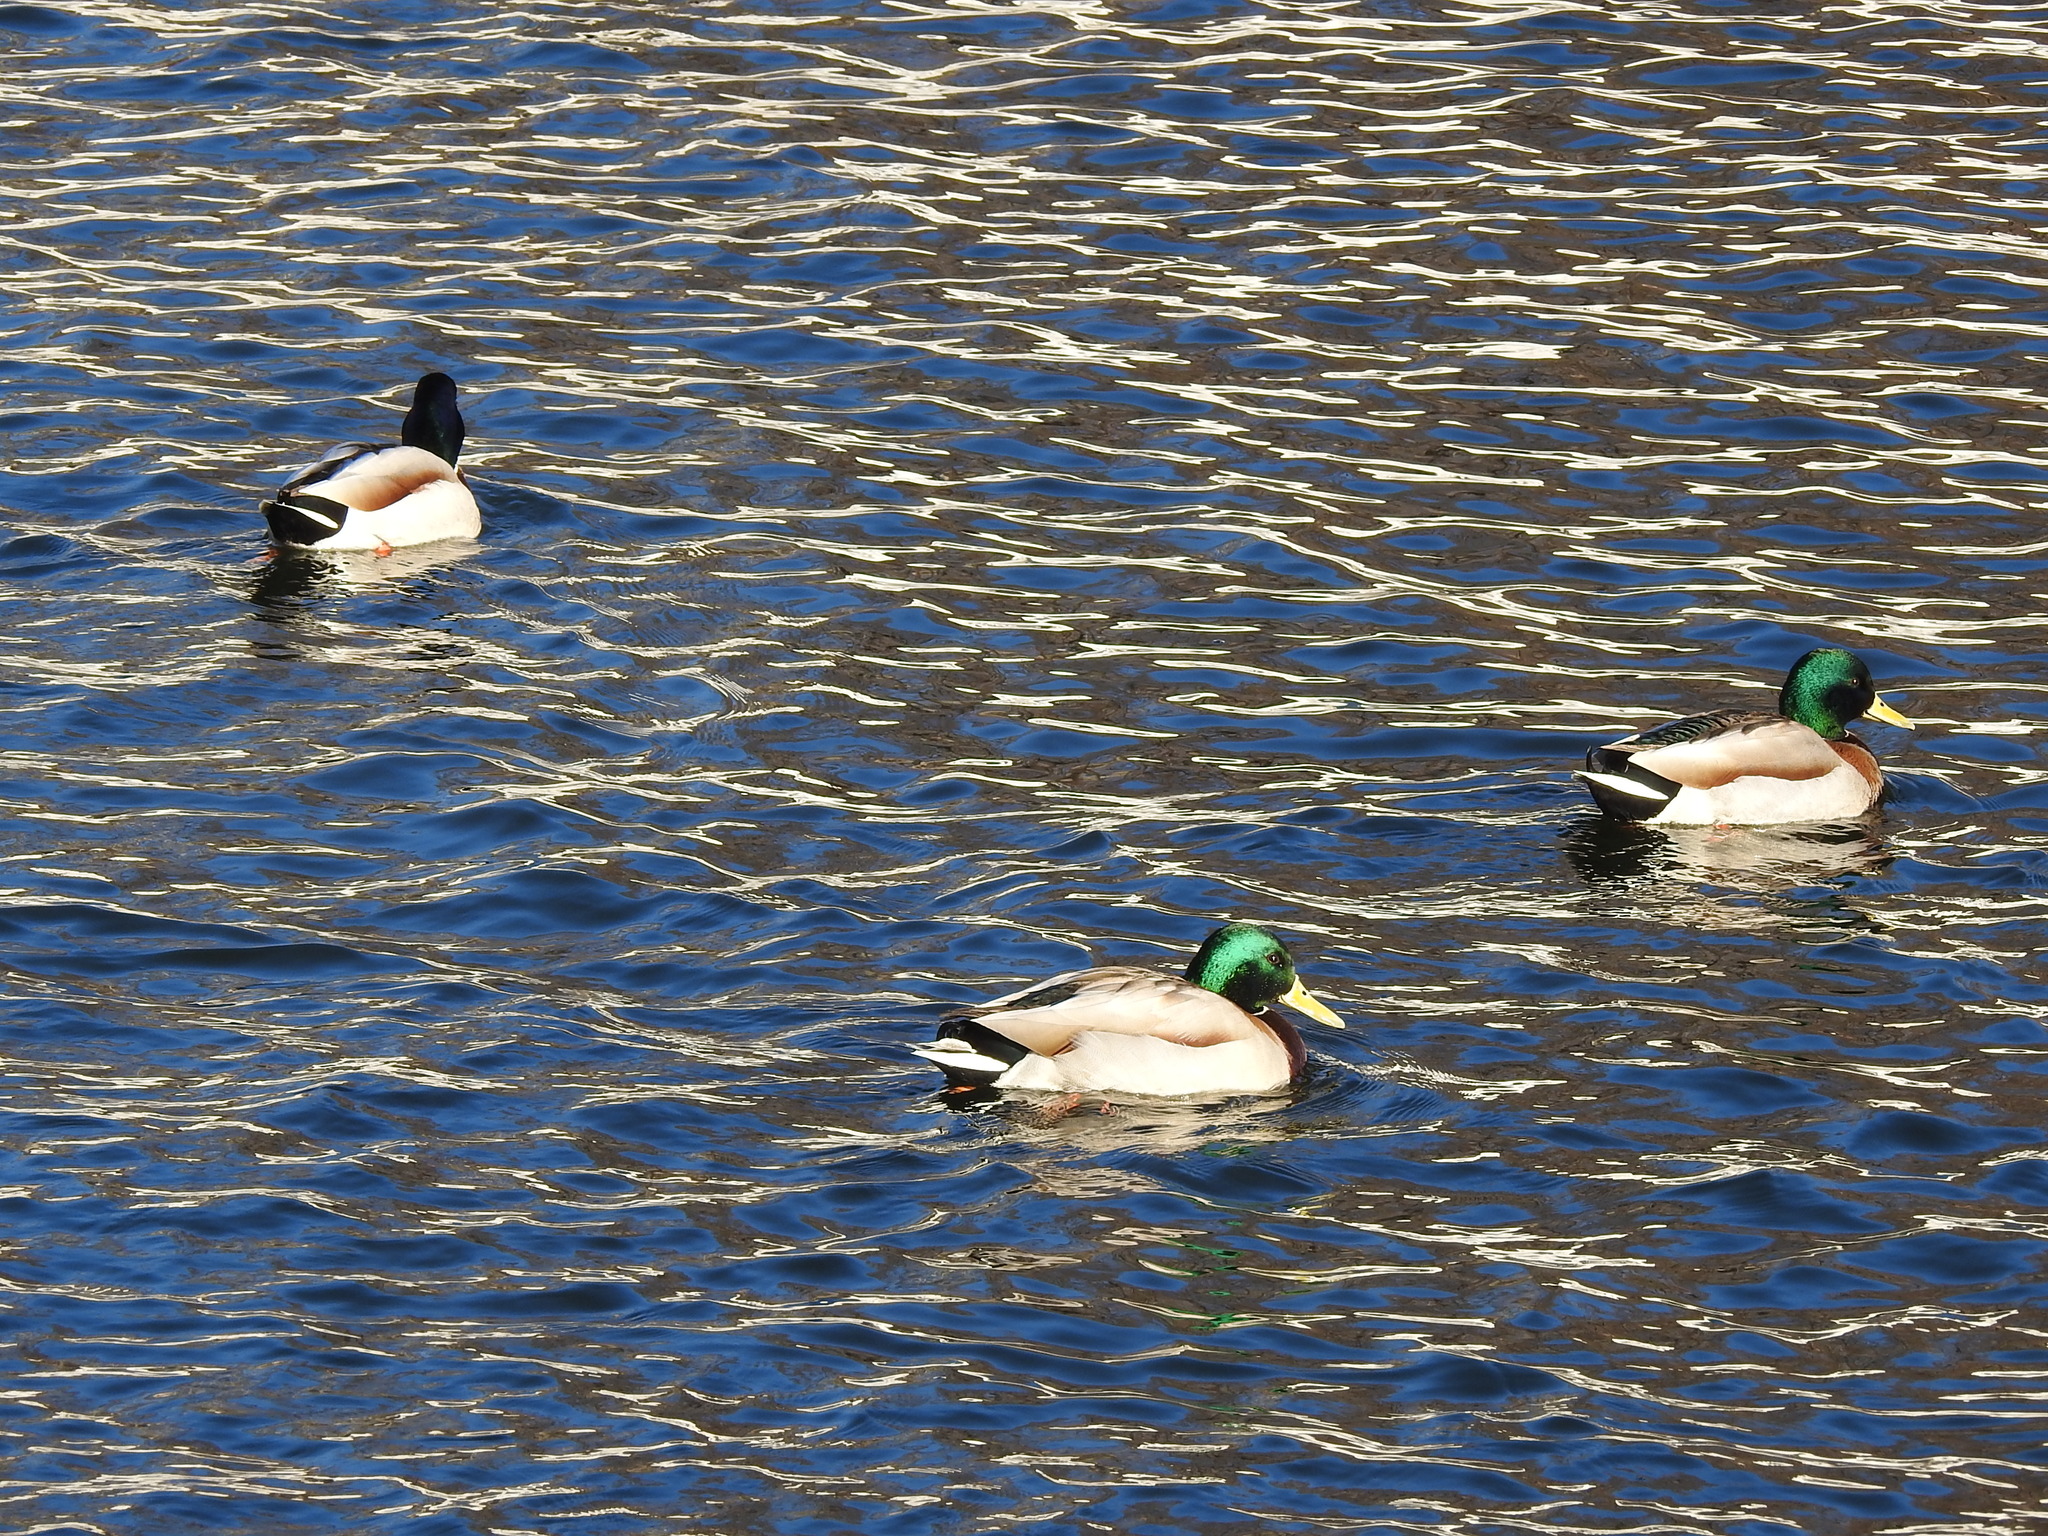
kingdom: Animalia
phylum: Chordata
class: Aves
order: Anseriformes
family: Anatidae
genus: Anas
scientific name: Anas platyrhynchos
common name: Mallard
